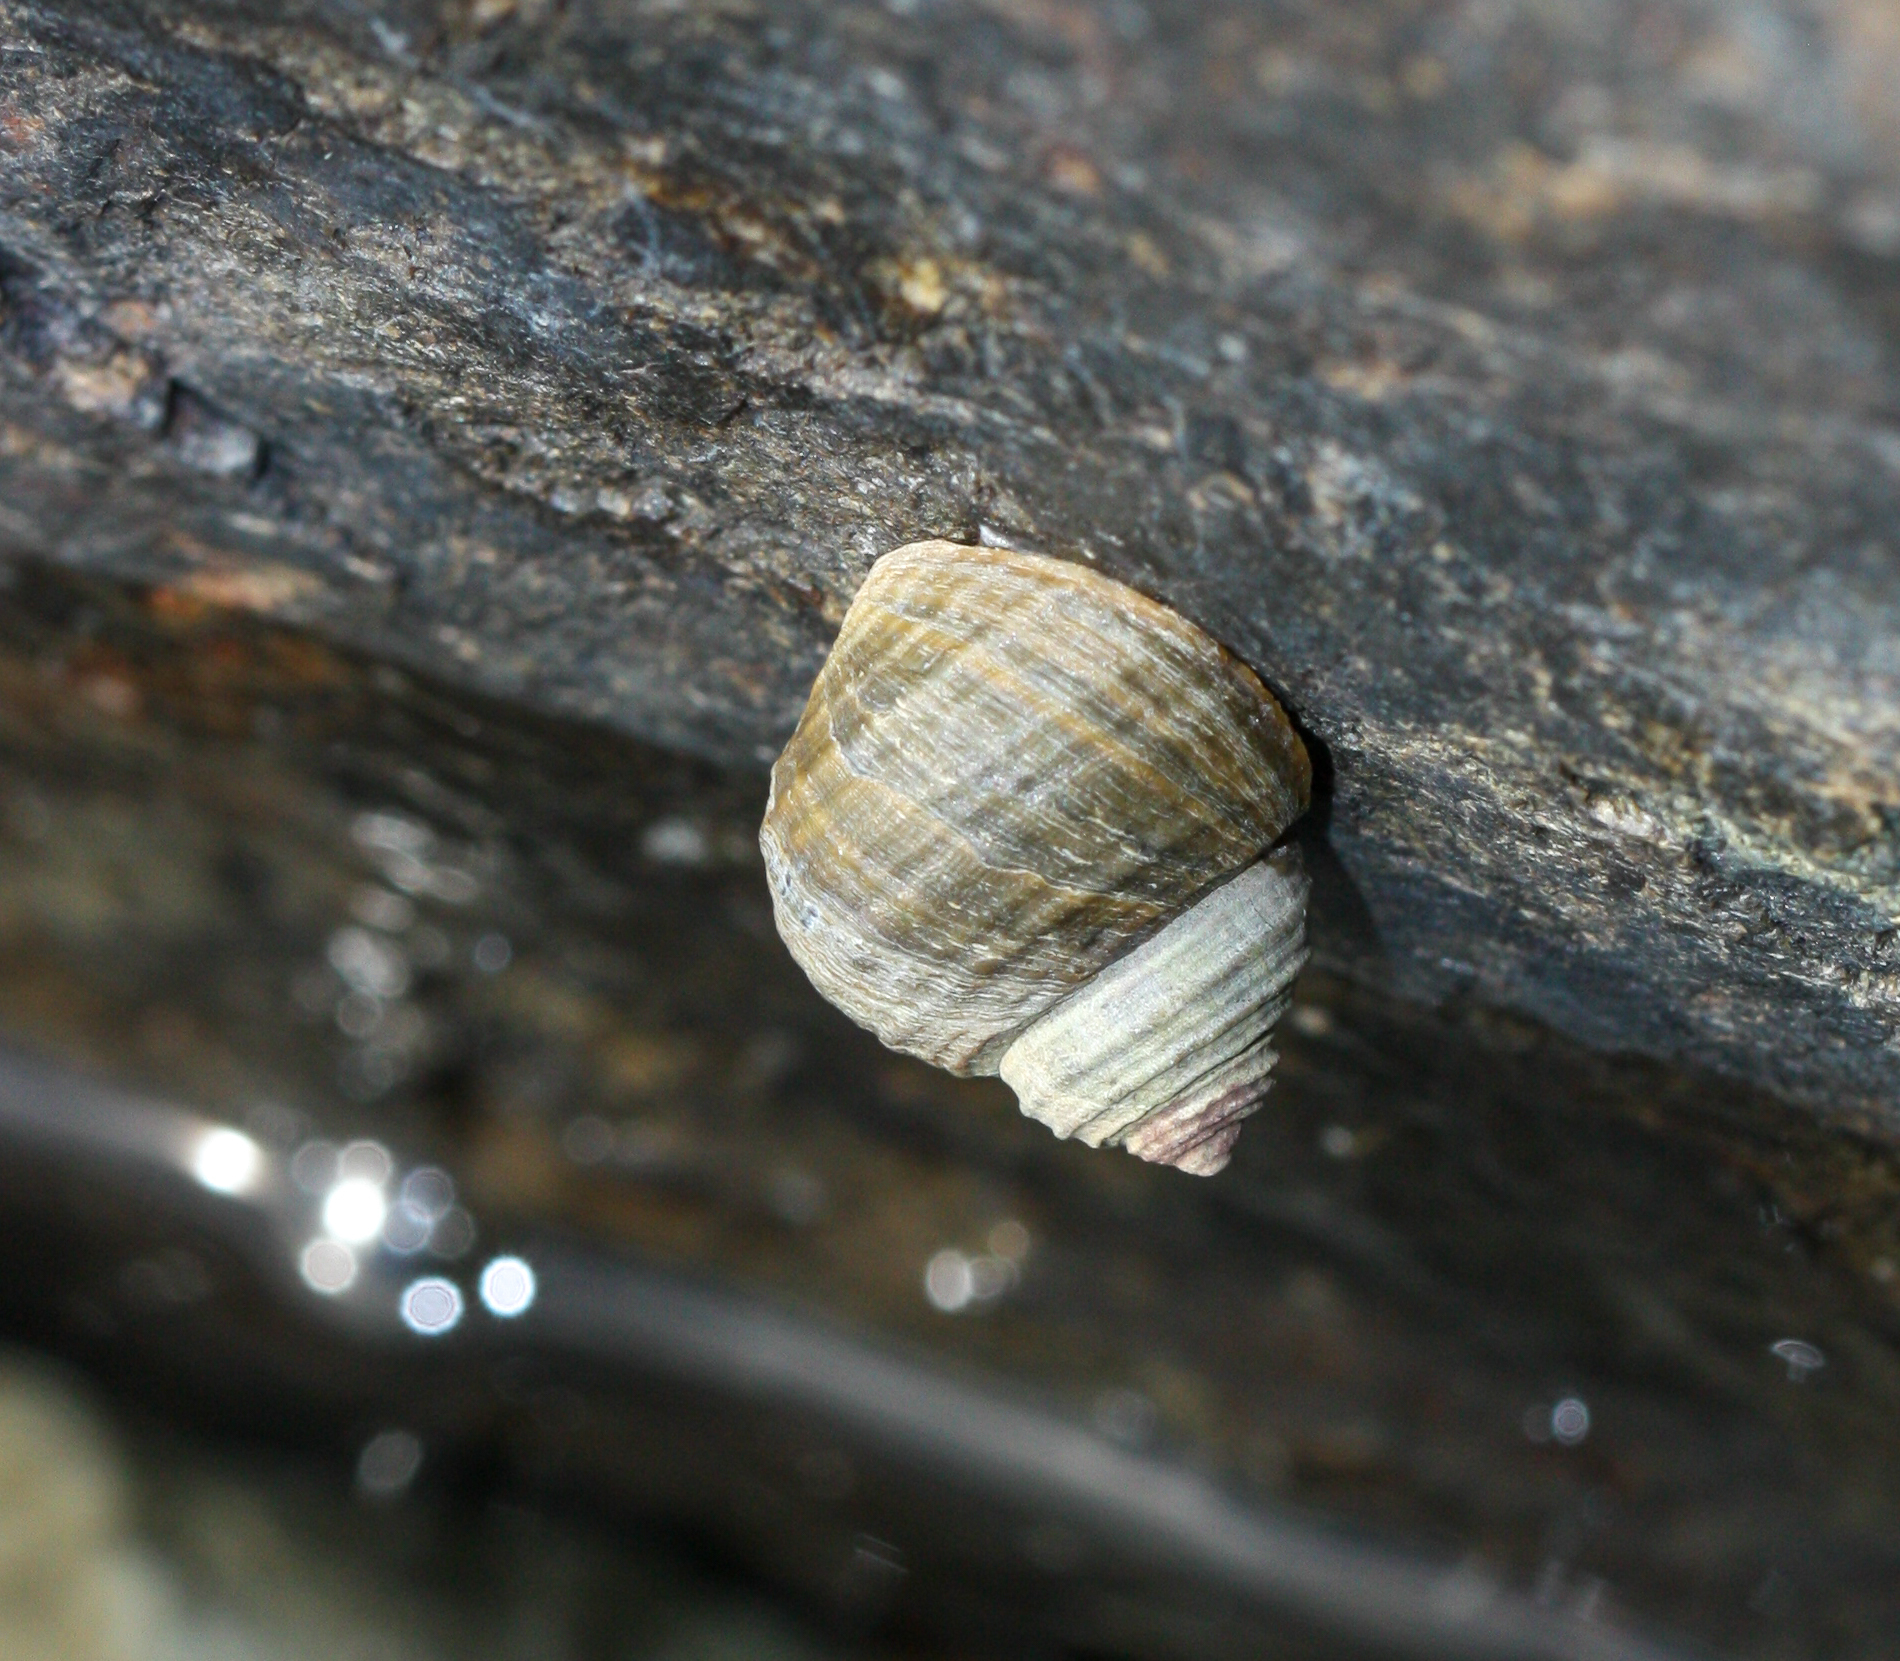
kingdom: Animalia
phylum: Mollusca
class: Gastropoda
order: Littorinimorpha
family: Littorinidae
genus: Littorina
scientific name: Littorina sitkana
